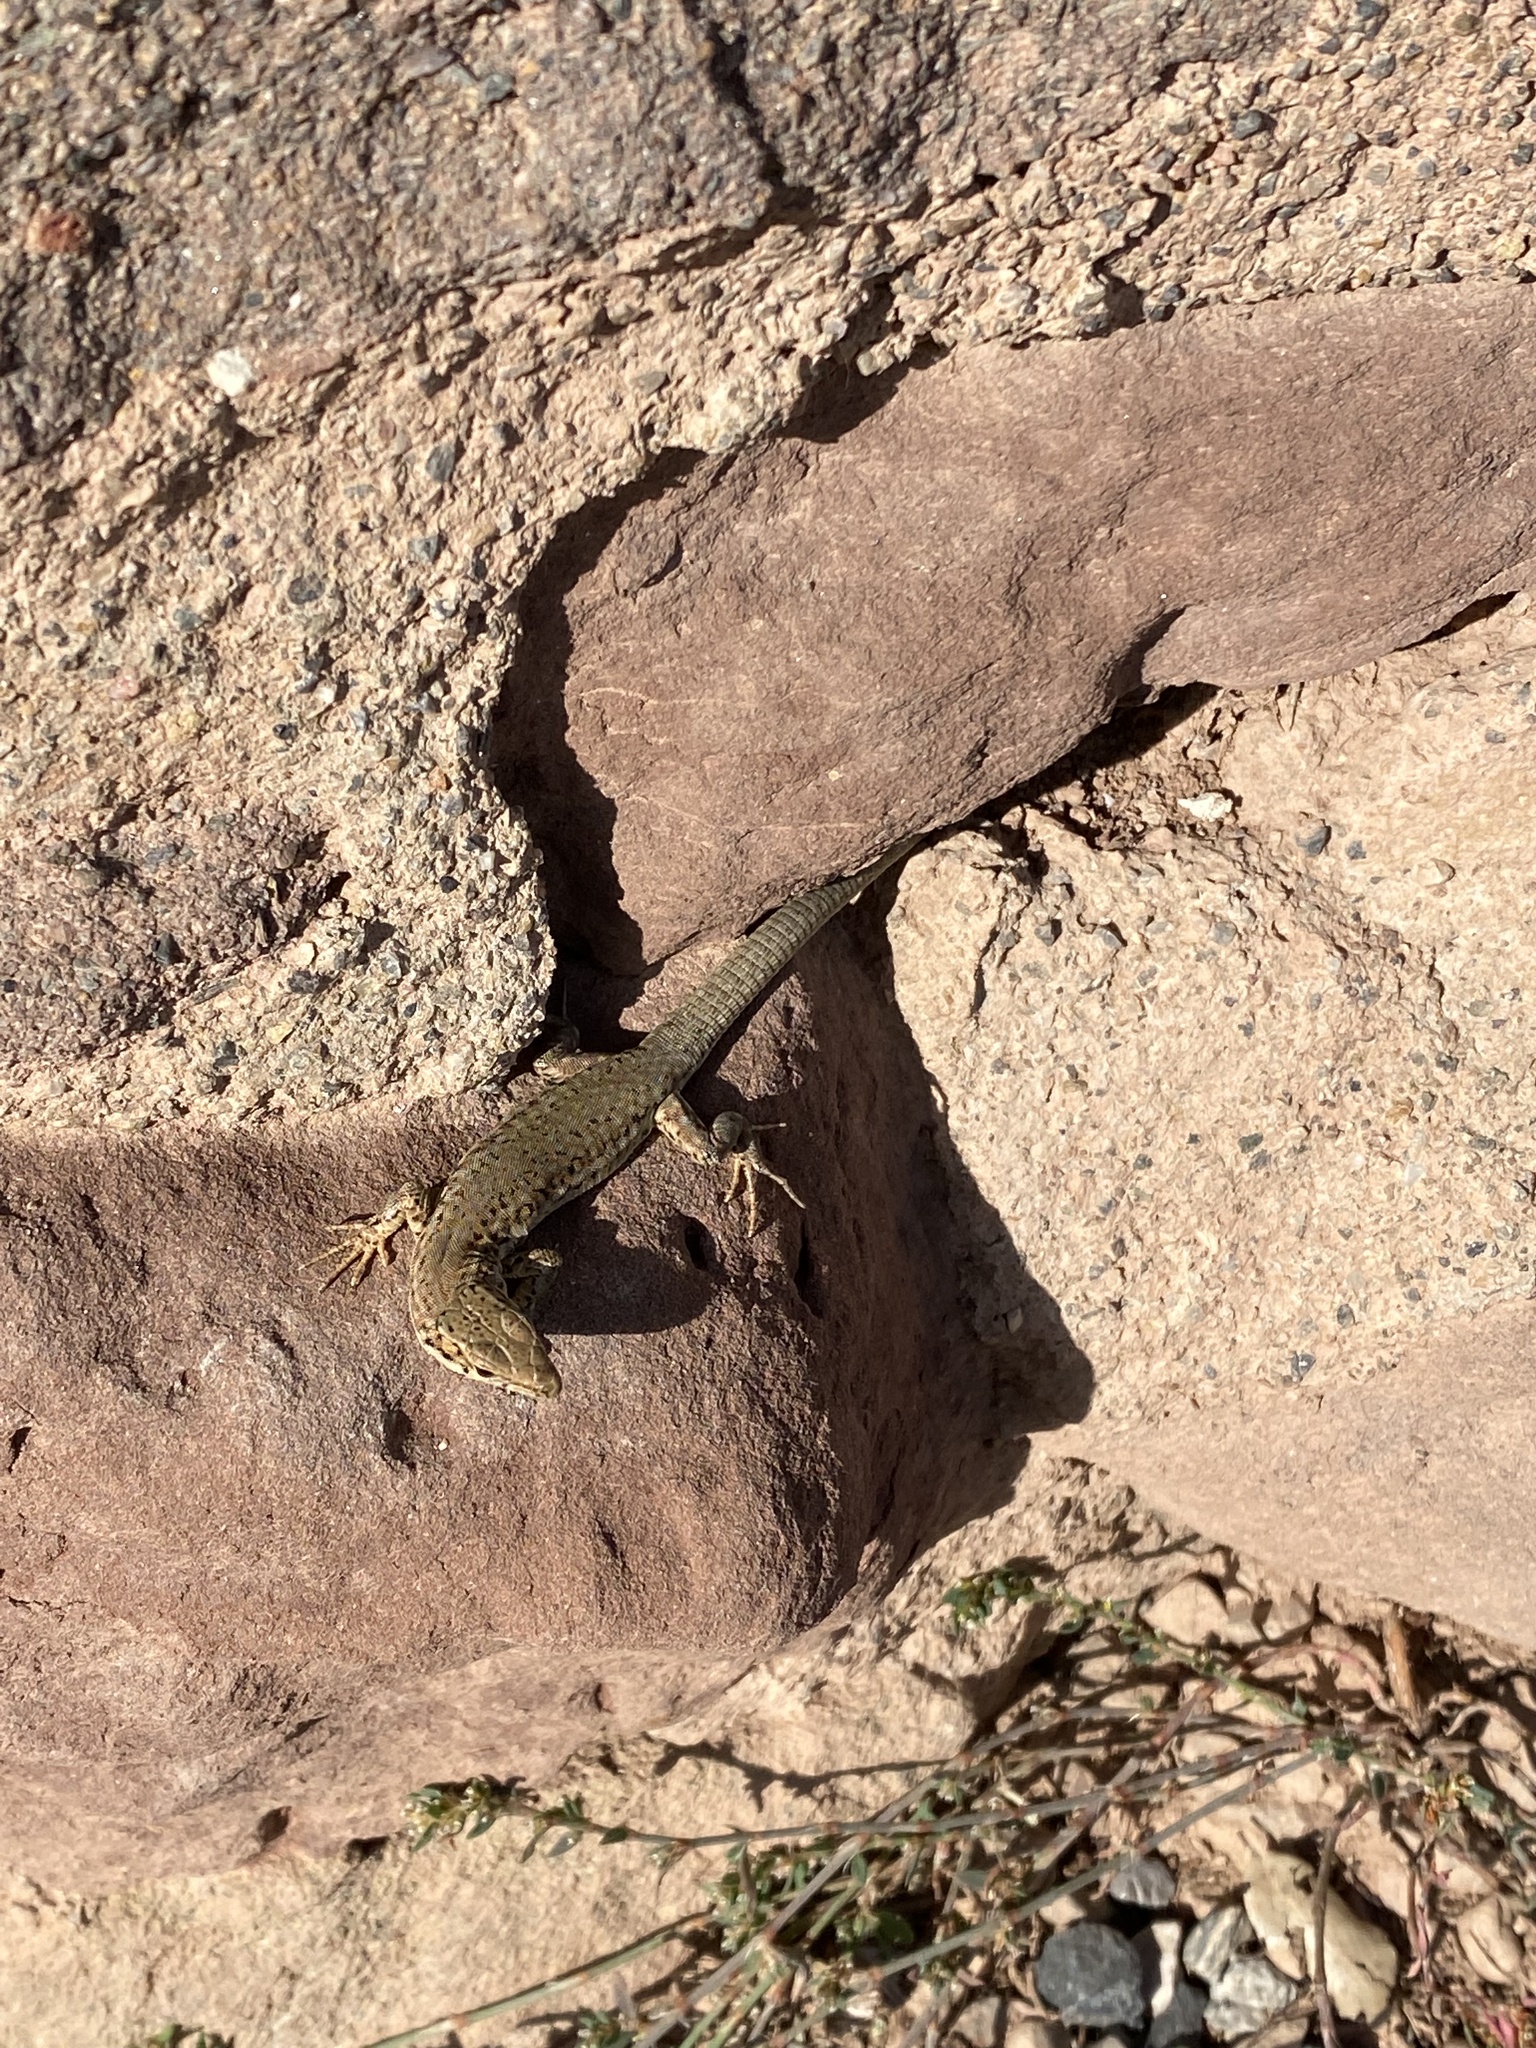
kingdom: Animalia
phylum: Chordata
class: Squamata
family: Lacertidae
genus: Podarcis
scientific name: Podarcis liolepis
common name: Catalonian wall lizard
